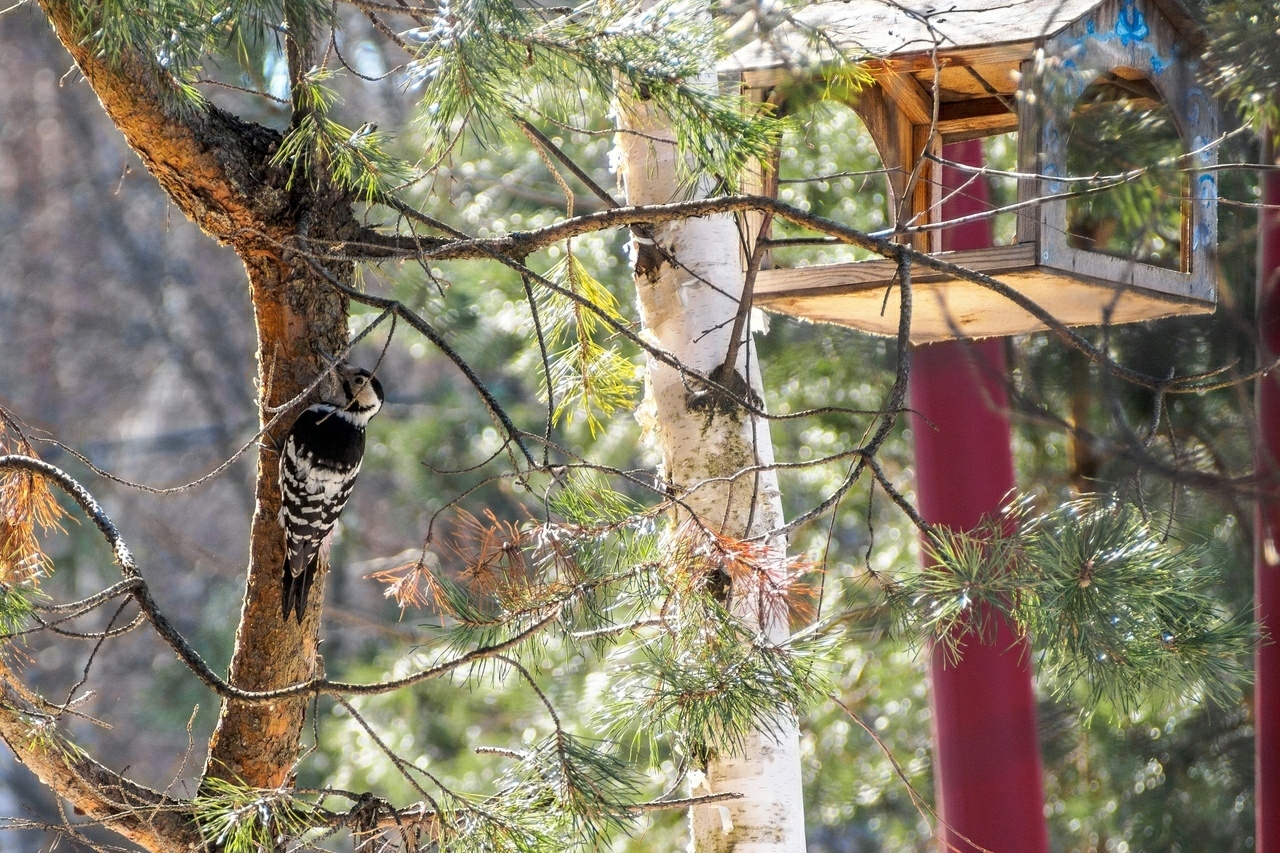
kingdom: Animalia
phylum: Chordata
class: Aves
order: Piciformes
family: Picidae
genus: Dendrocopos
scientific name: Dendrocopos leucotos
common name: White-backed woodpecker
